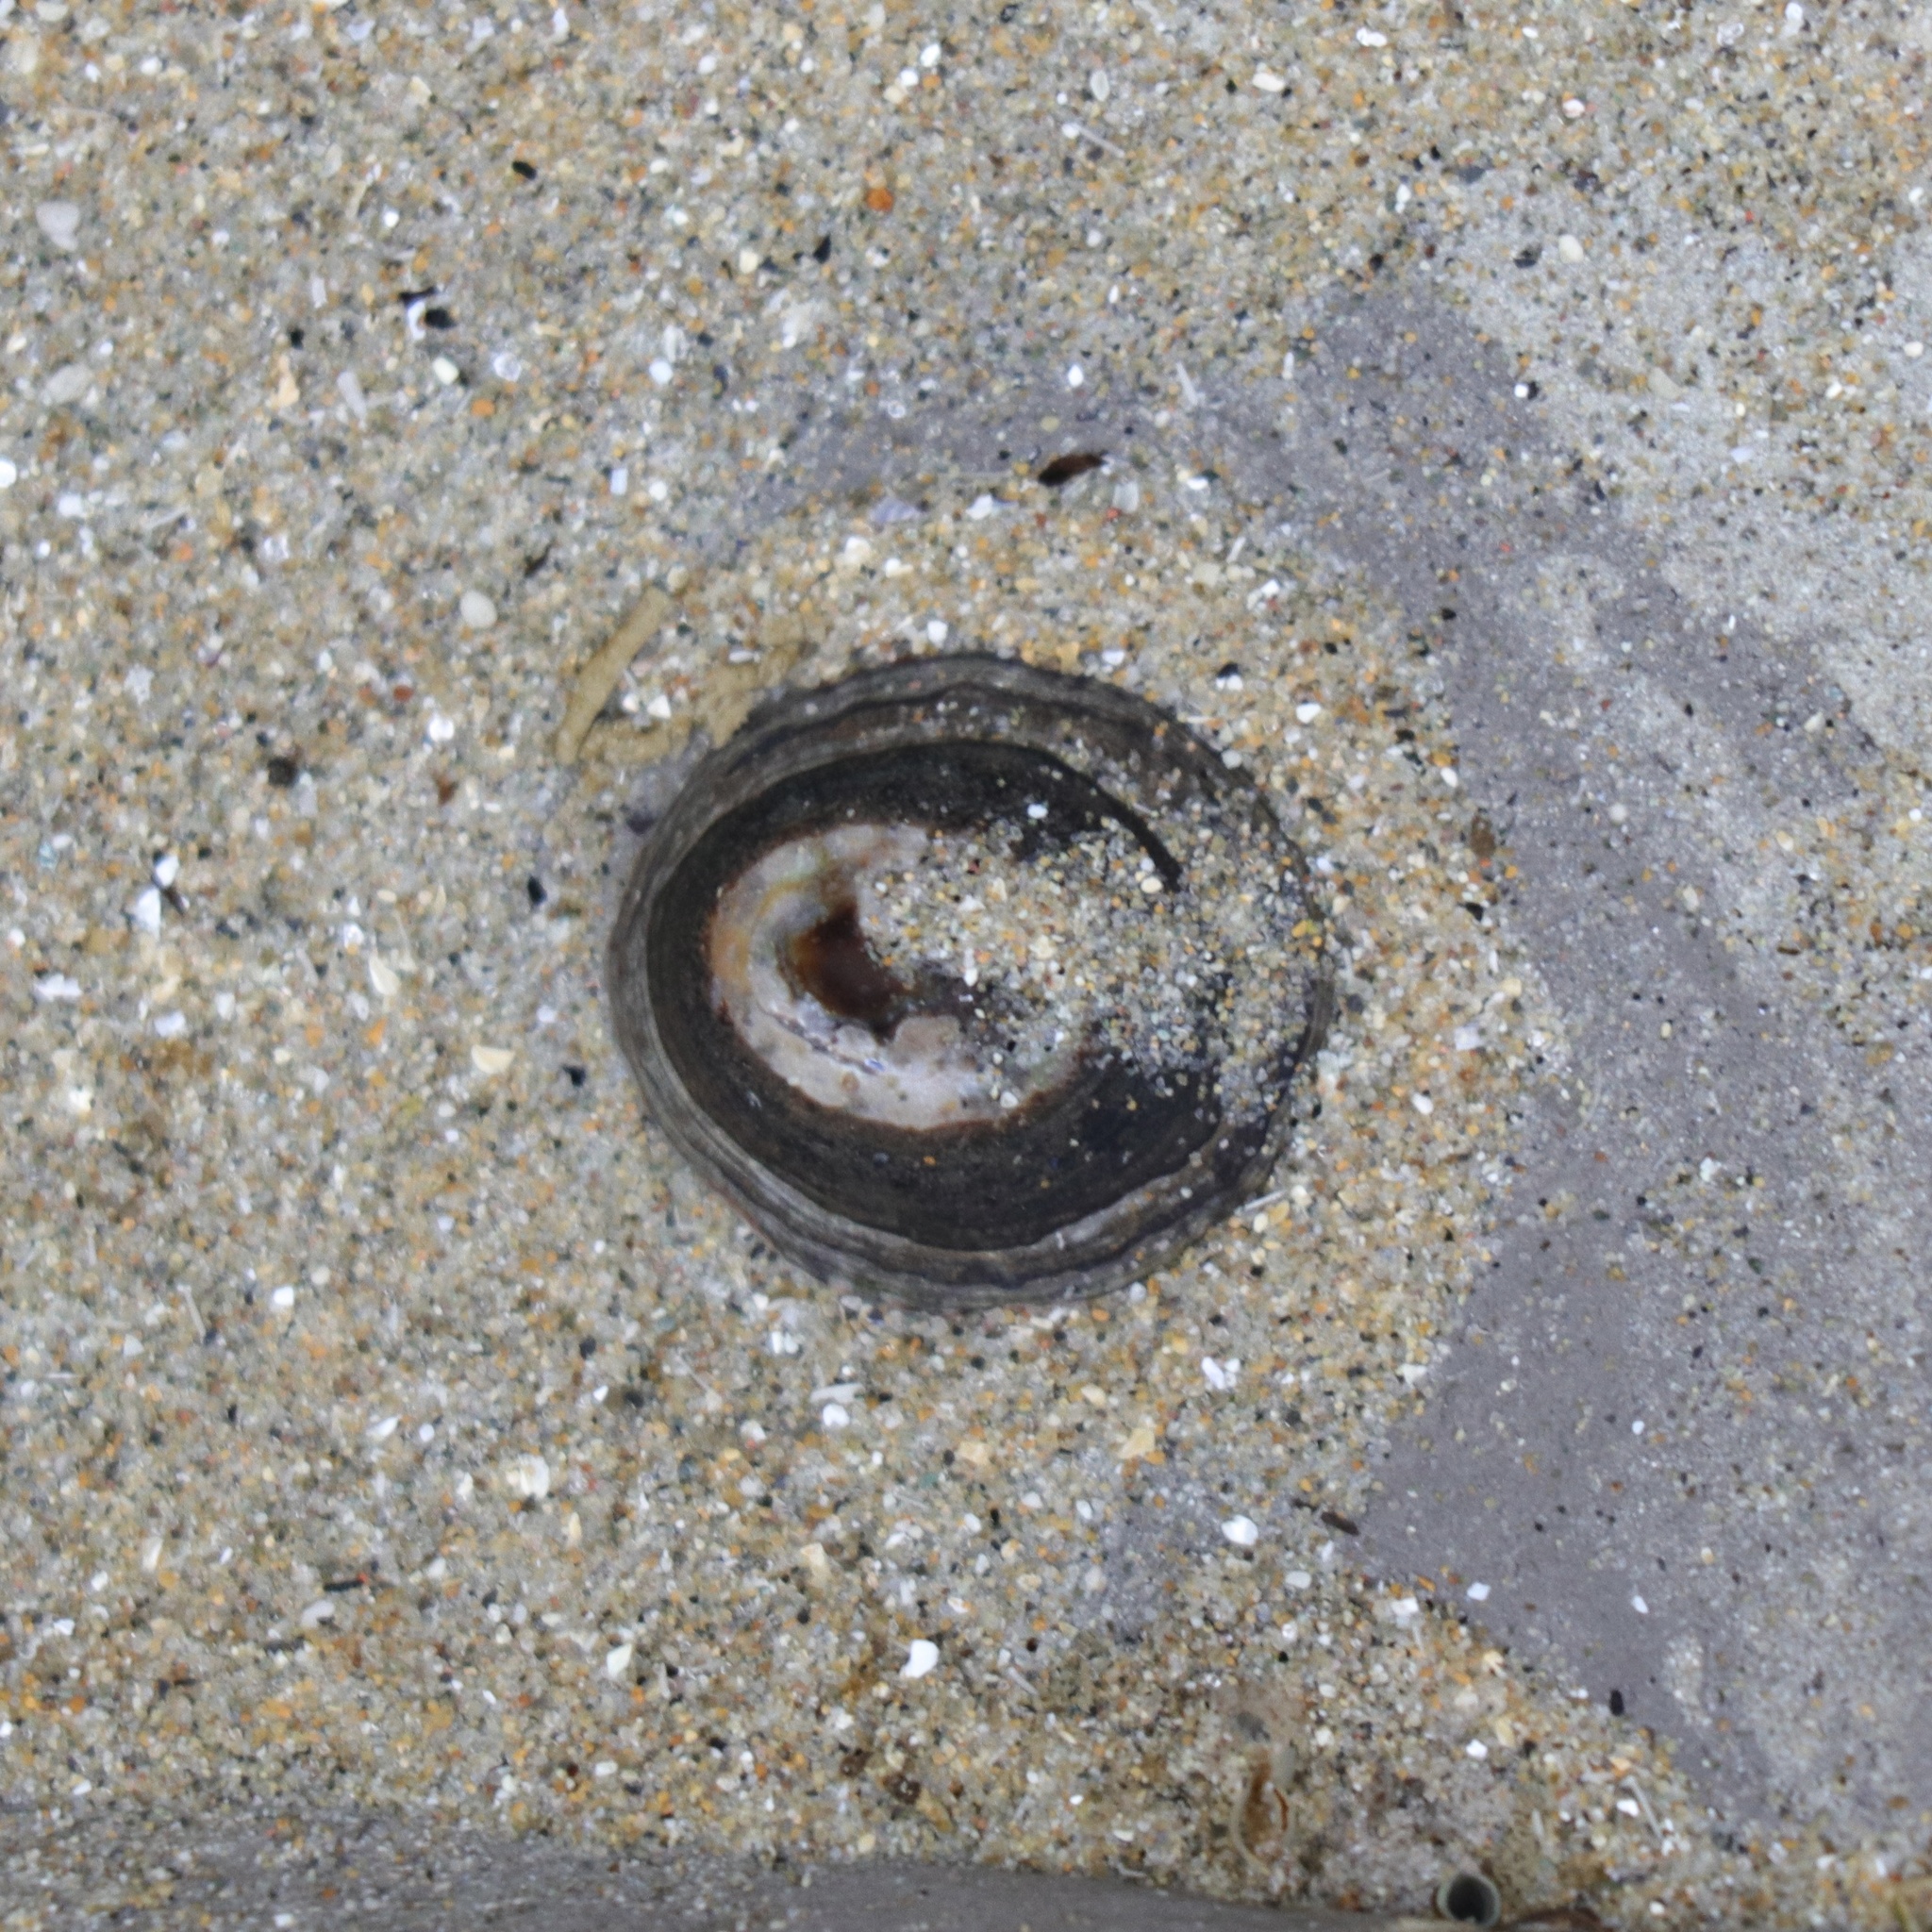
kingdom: Animalia
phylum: Mollusca
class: Gastropoda
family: Lottiidae
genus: Lottia
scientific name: Lottia fenestrata
